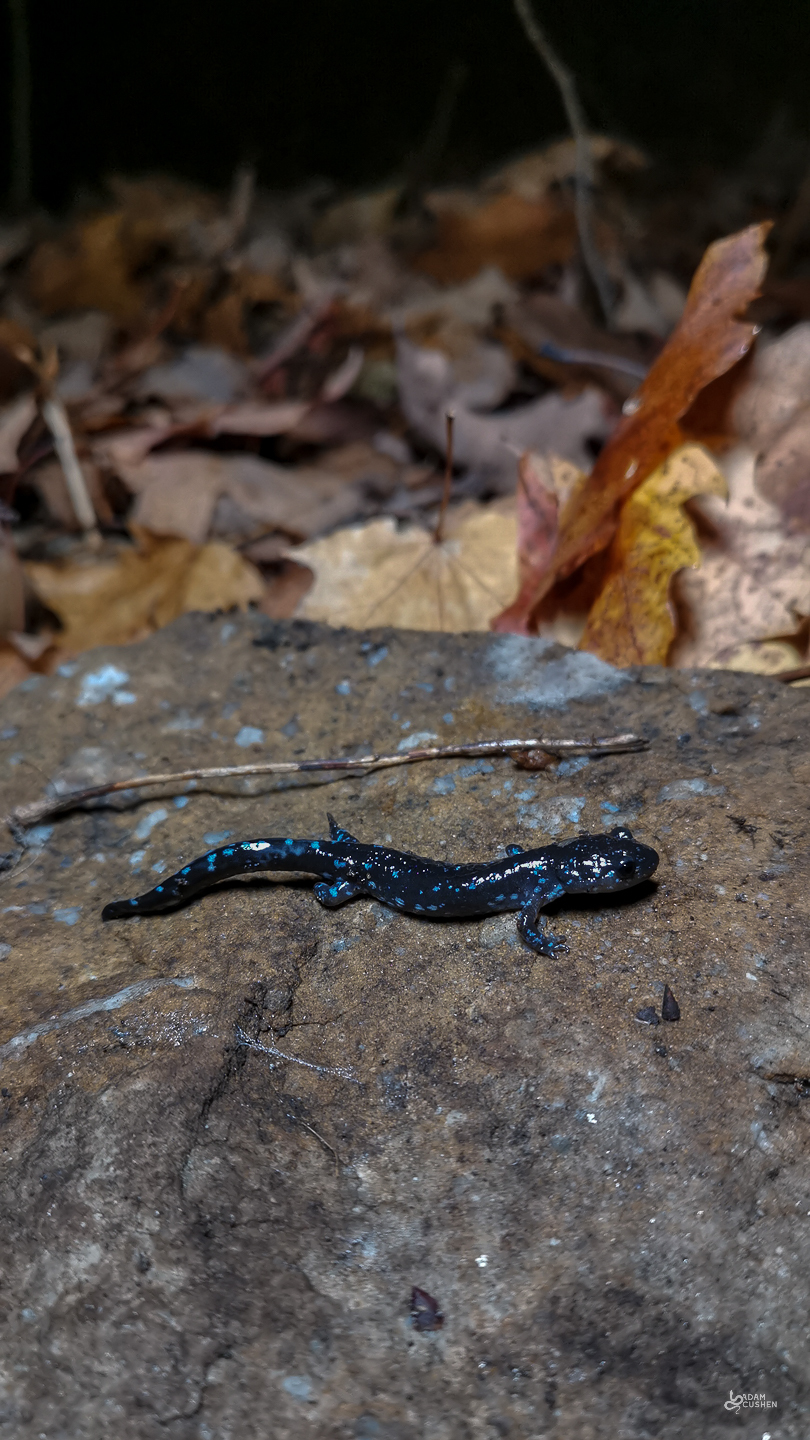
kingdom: Animalia
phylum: Chordata
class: Amphibia
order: Caudata
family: Ambystomatidae
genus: Ambystoma
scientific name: Ambystoma laterale
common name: Blue-spotted salamander
